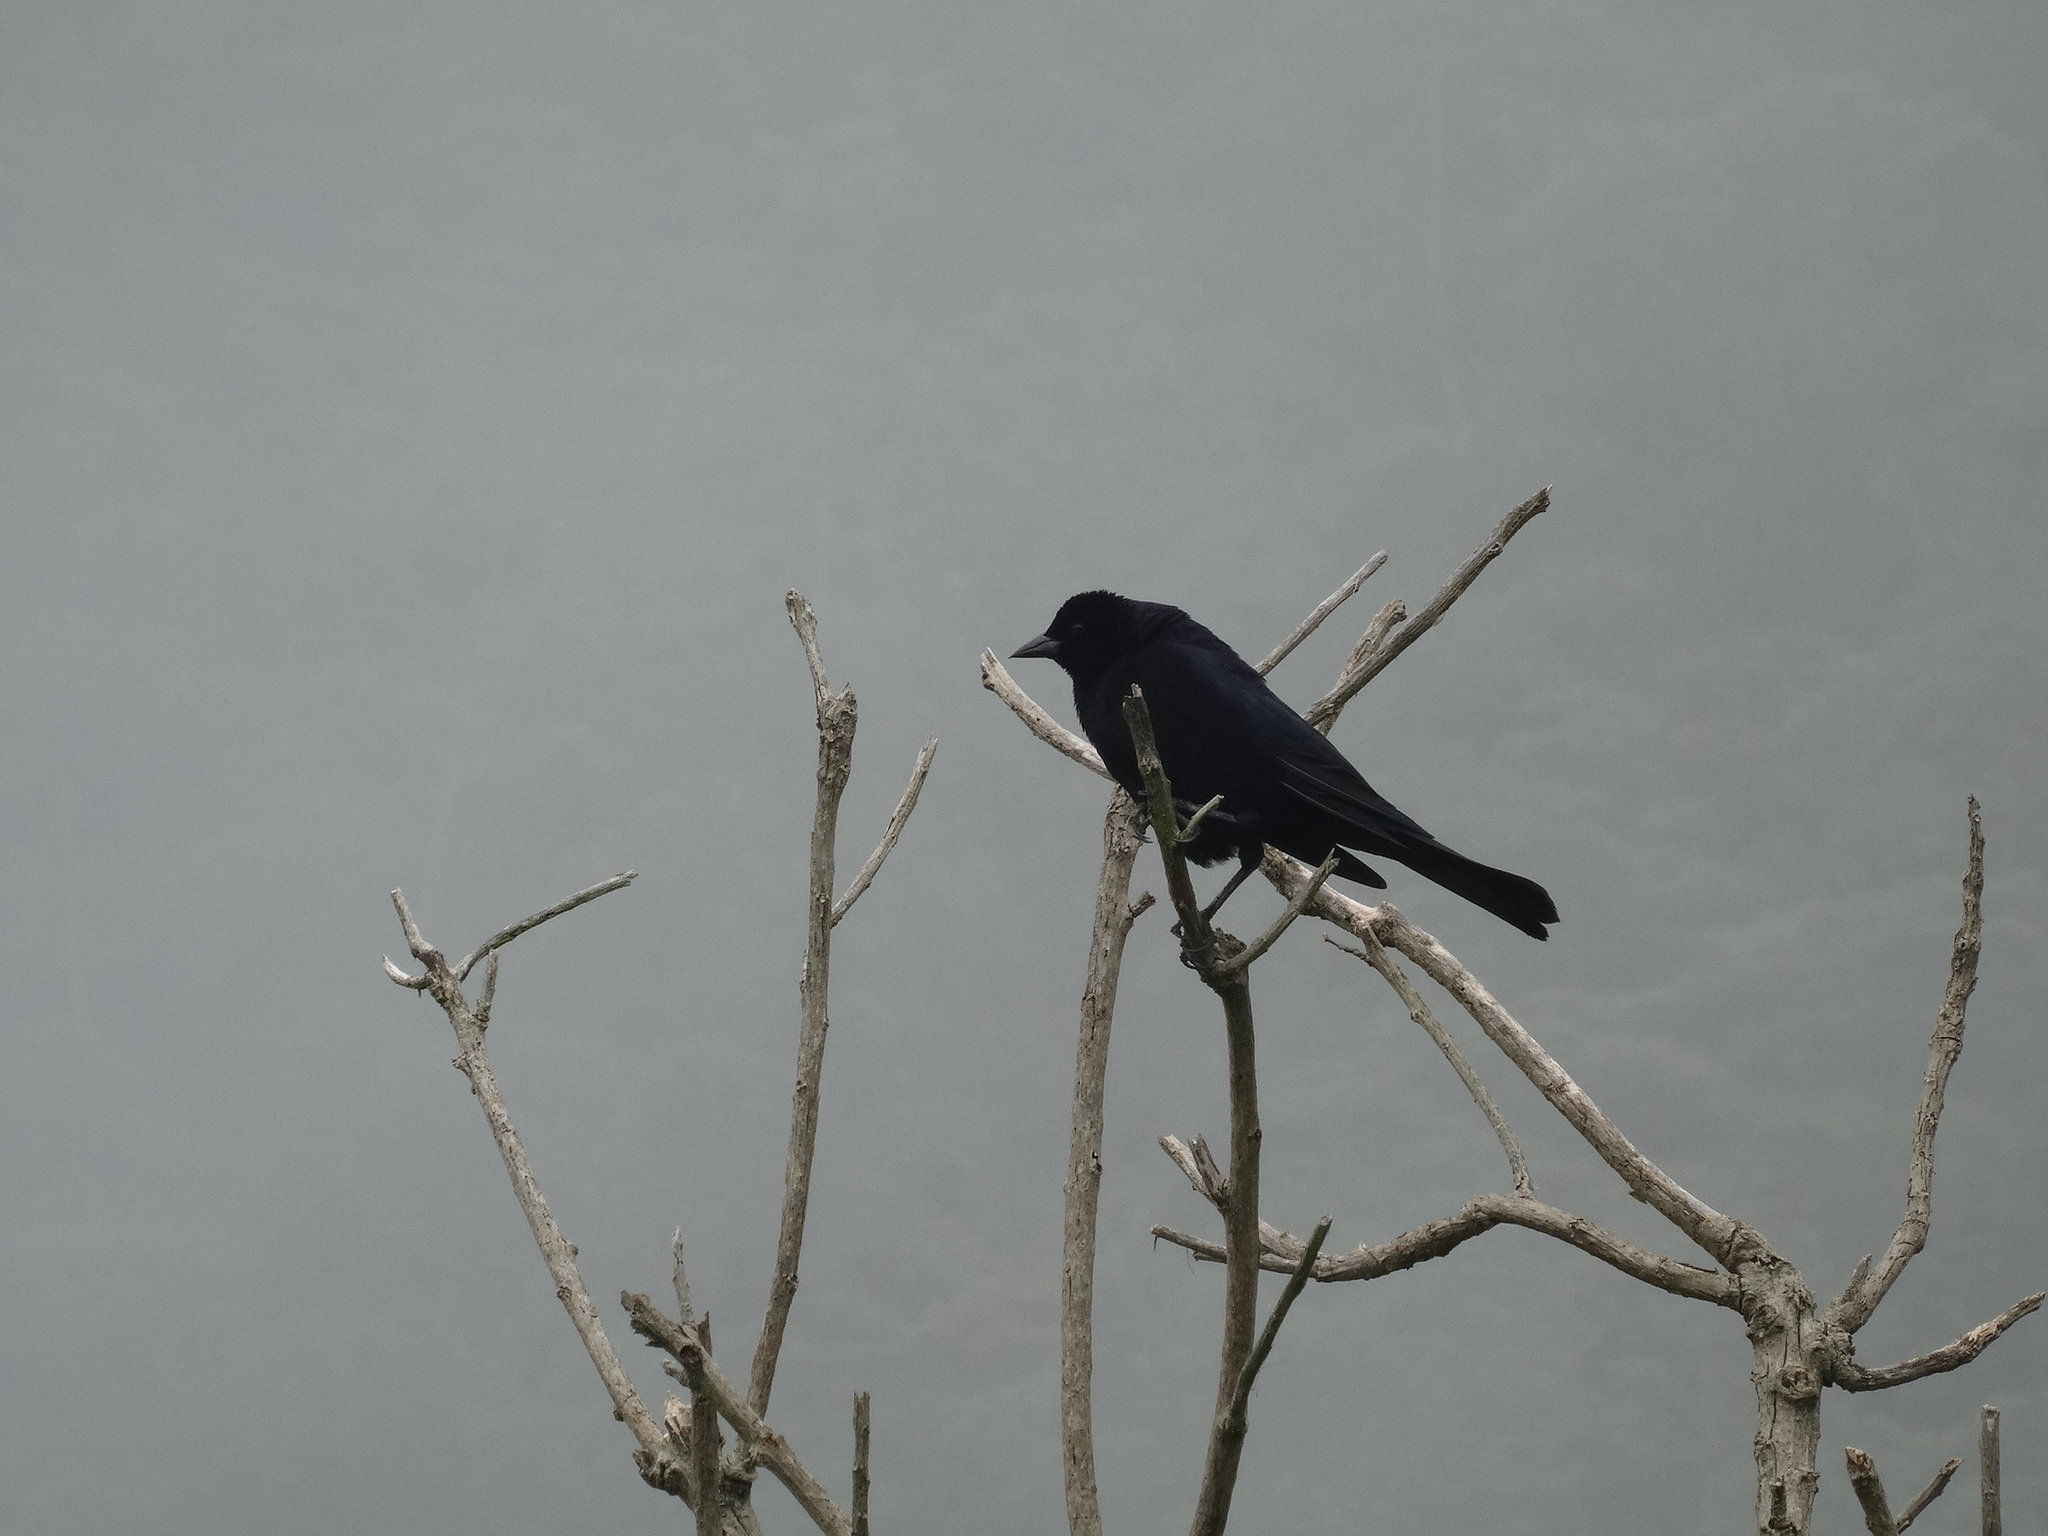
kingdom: Animalia
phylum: Chordata
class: Aves
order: Passeriformes
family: Icteridae
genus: Molothrus
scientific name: Molothrus bonariensis
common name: Shiny cowbird
